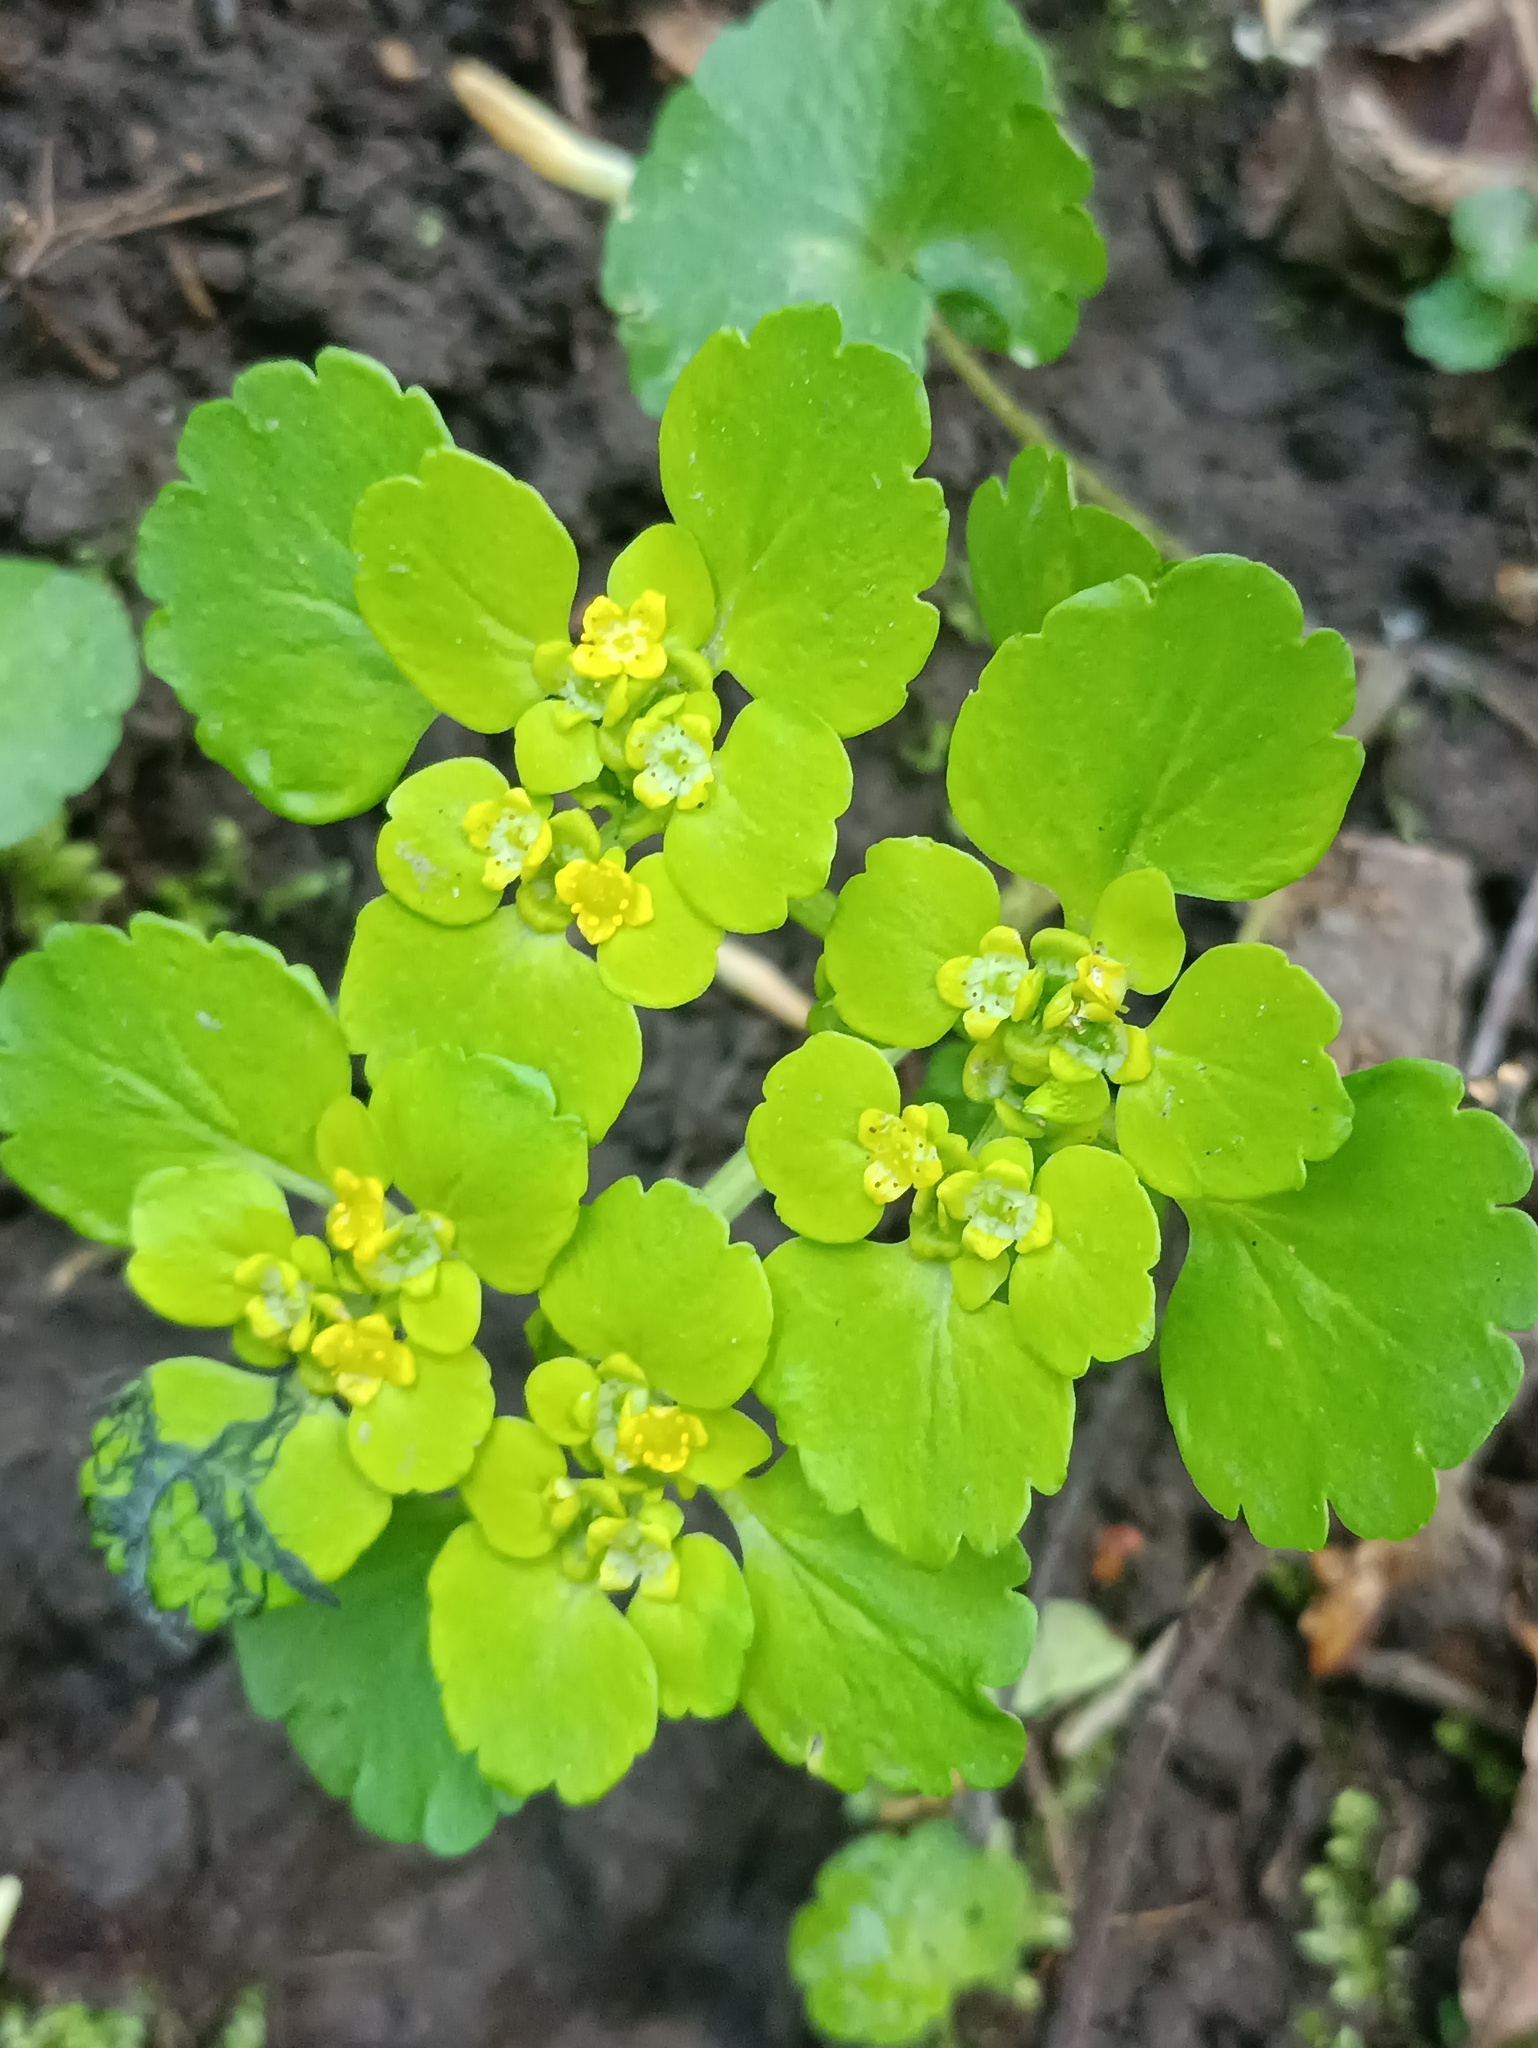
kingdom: Plantae
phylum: Tracheophyta
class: Magnoliopsida
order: Saxifragales
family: Saxifragaceae
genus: Chrysosplenium
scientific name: Chrysosplenium alternifolium
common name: Alternate-leaved golden-saxifrage
